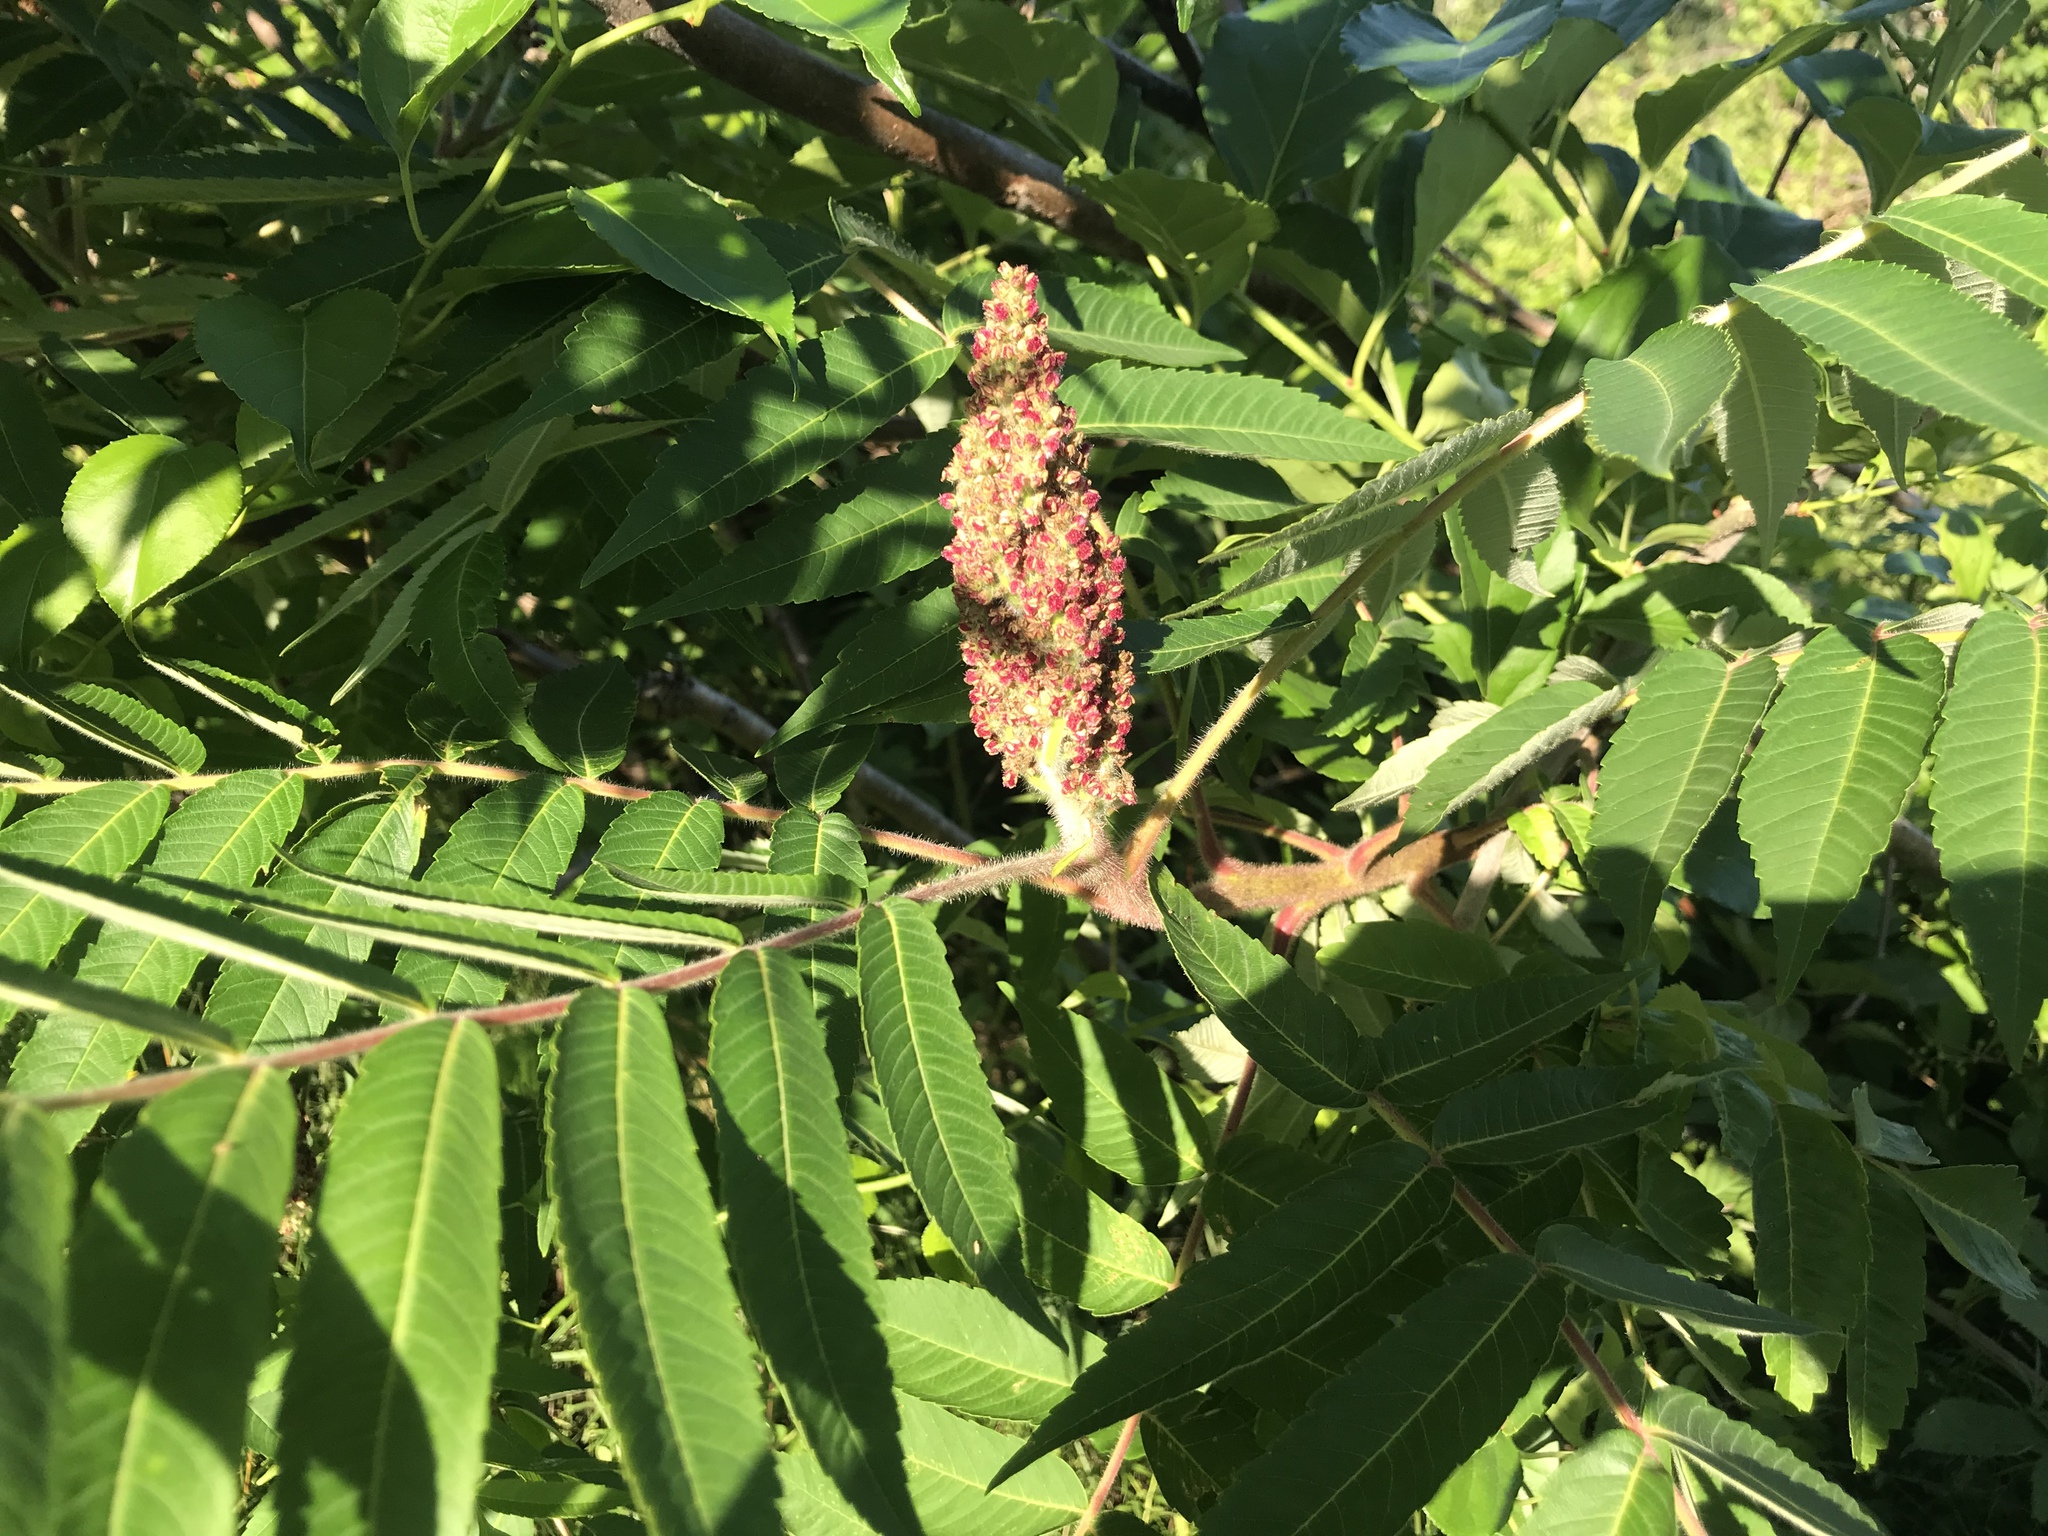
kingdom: Plantae
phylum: Tracheophyta
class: Magnoliopsida
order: Sapindales
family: Anacardiaceae
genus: Rhus
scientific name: Rhus typhina
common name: Staghorn sumac
